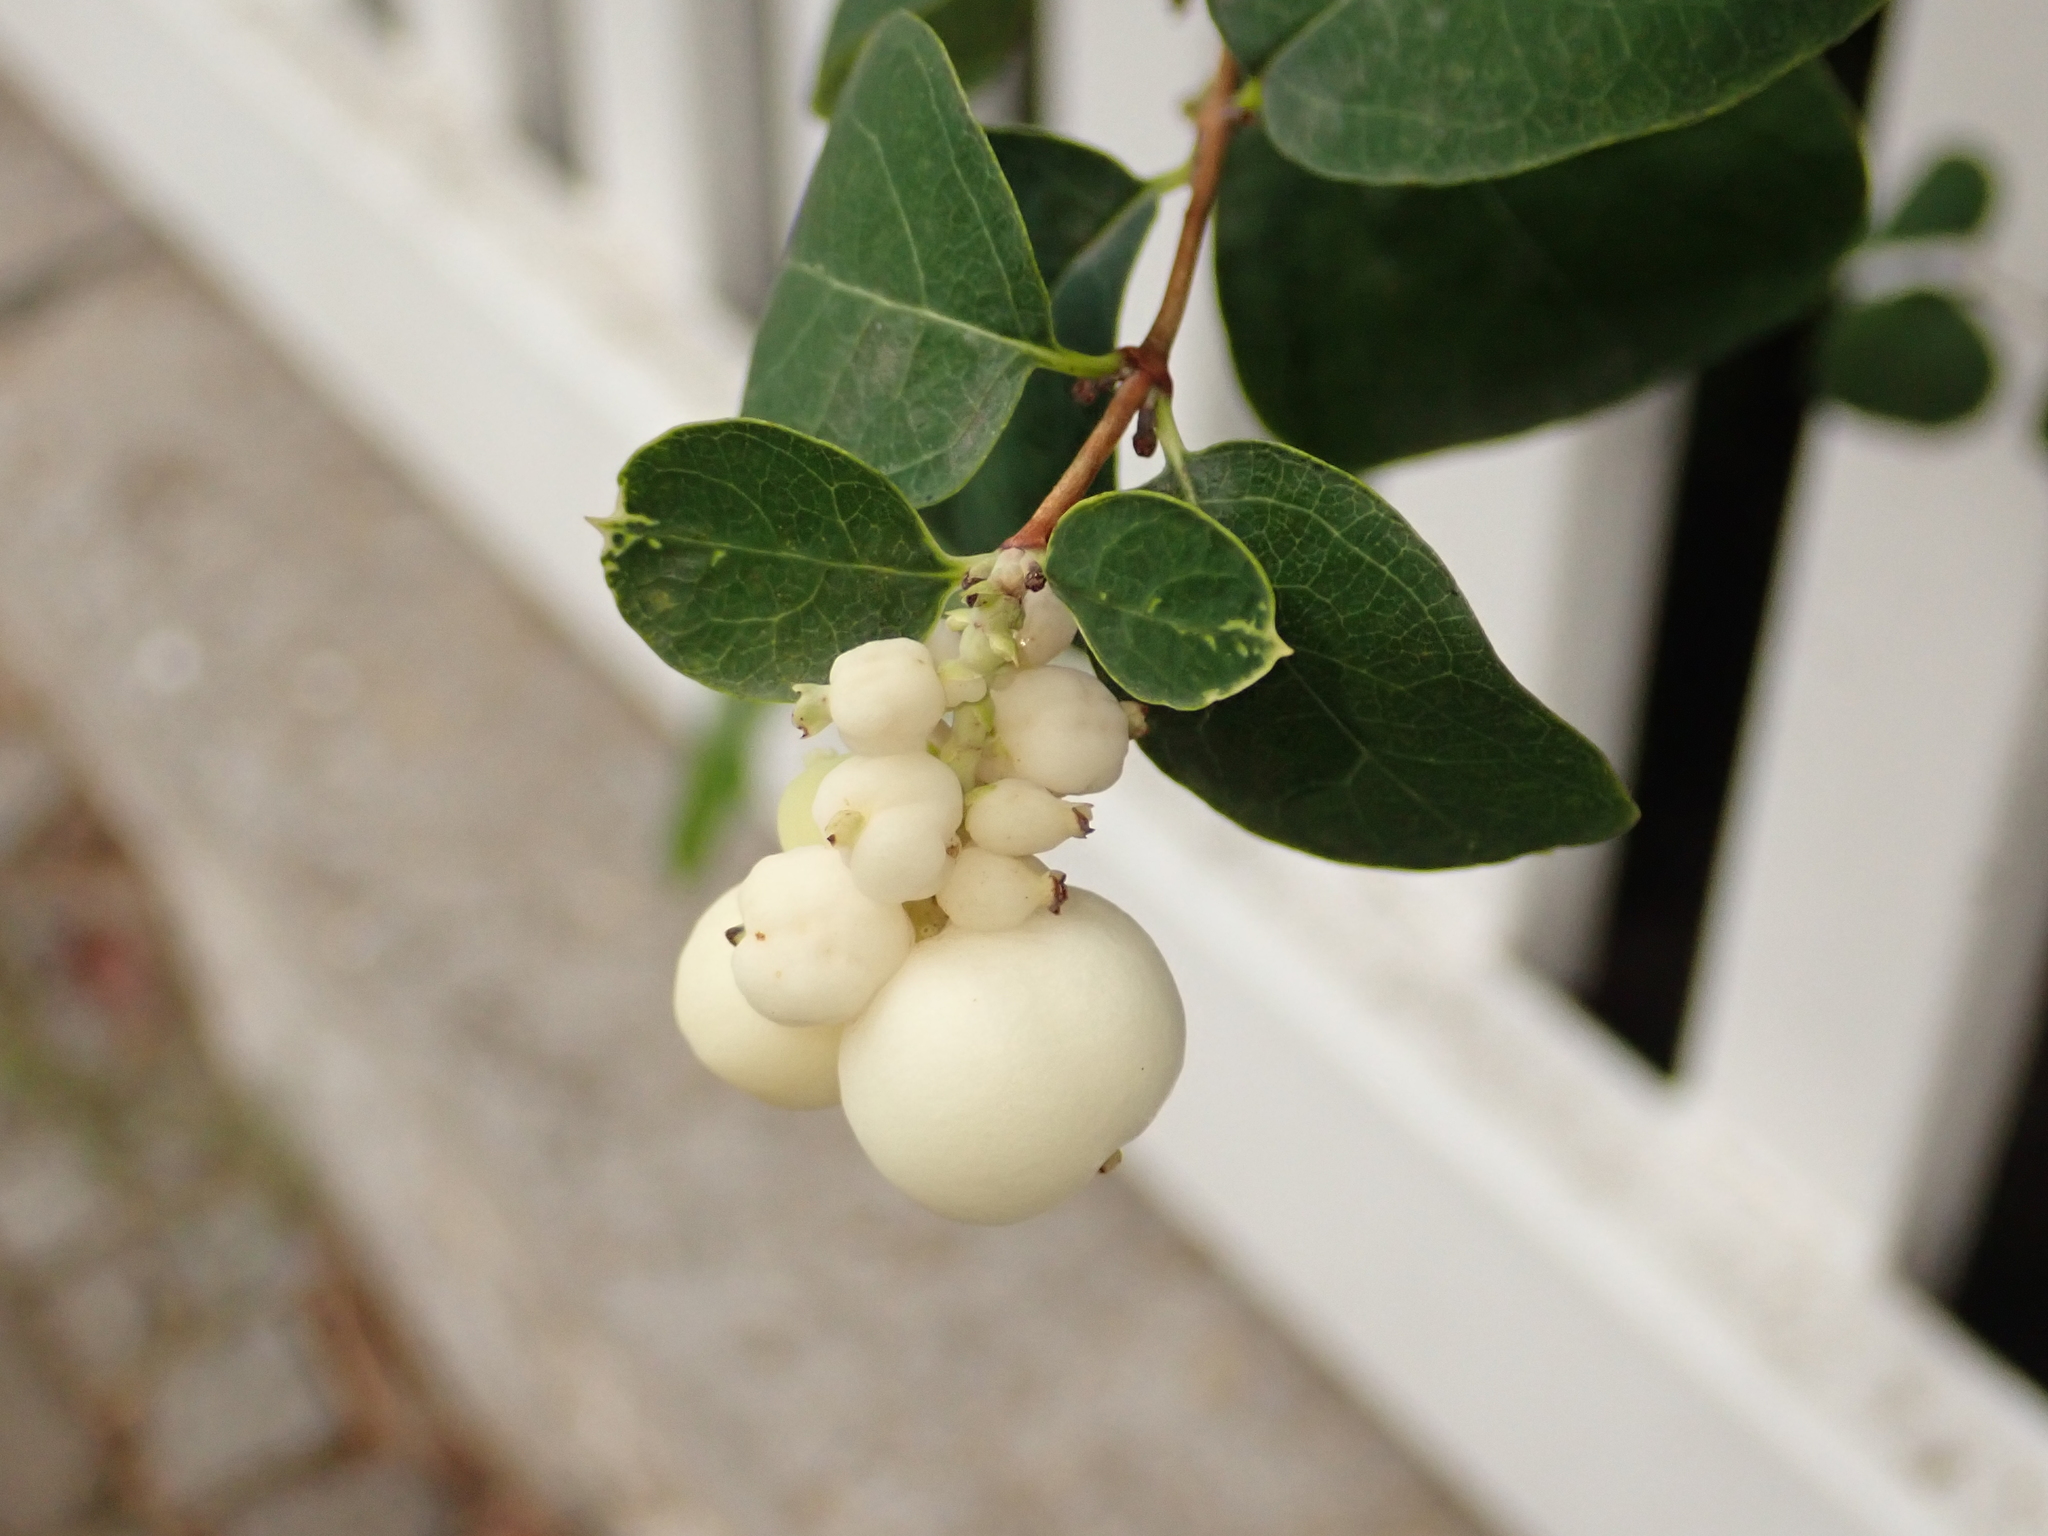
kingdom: Plantae
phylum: Tracheophyta
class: Magnoliopsida
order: Dipsacales
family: Caprifoliaceae
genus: Symphoricarpos
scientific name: Symphoricarpos albus
